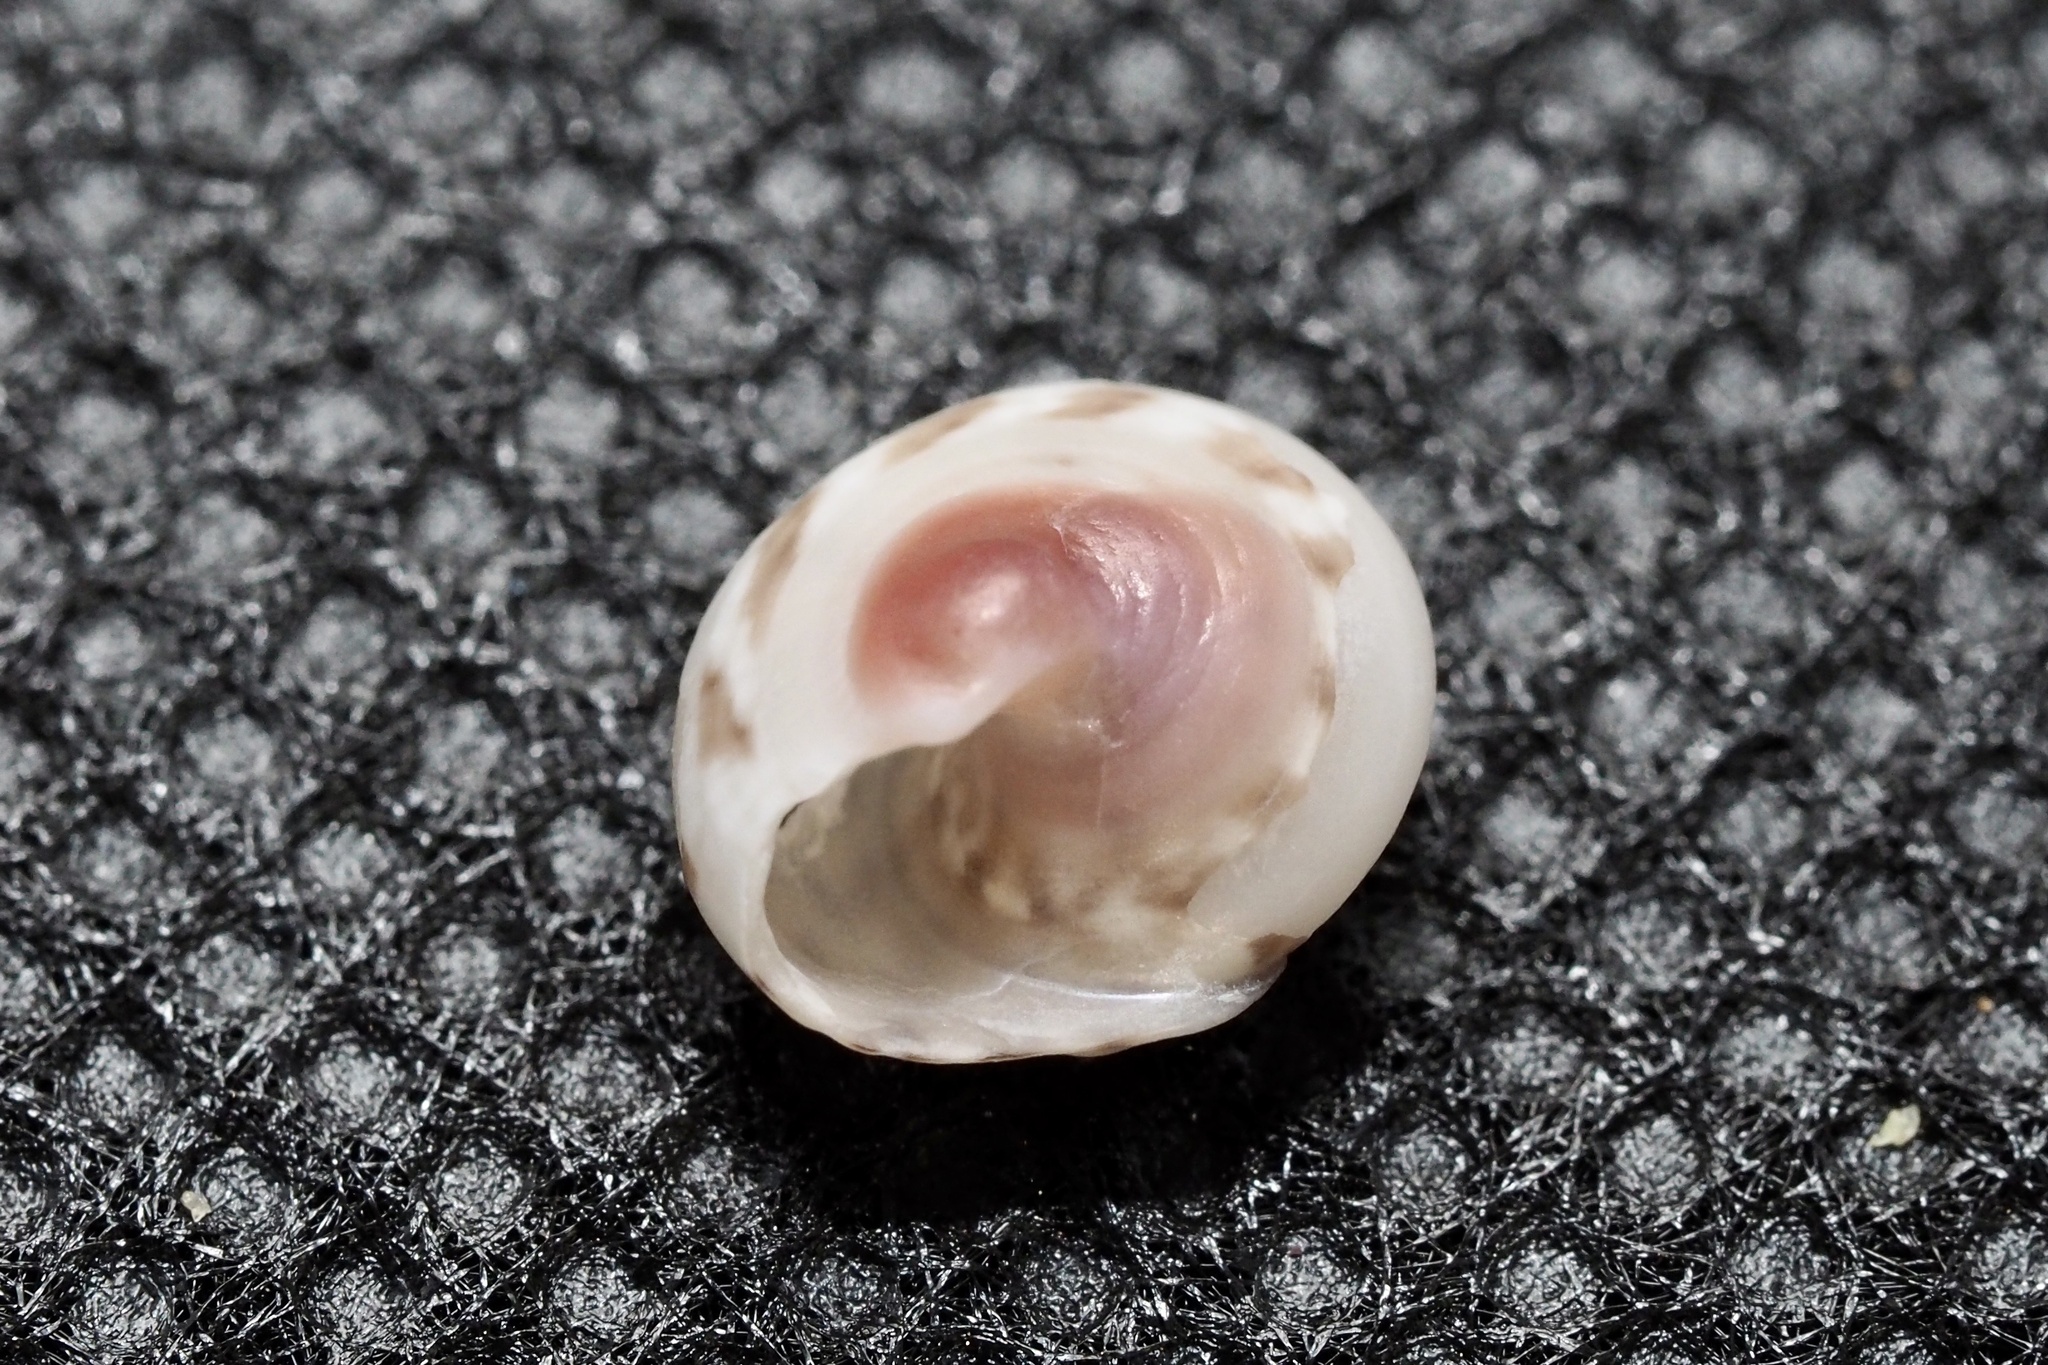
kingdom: Animalia
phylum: Mollusca
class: Gastropoda
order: Trochida
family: Trochidae
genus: Umbonium
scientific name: Umbonium costatum
